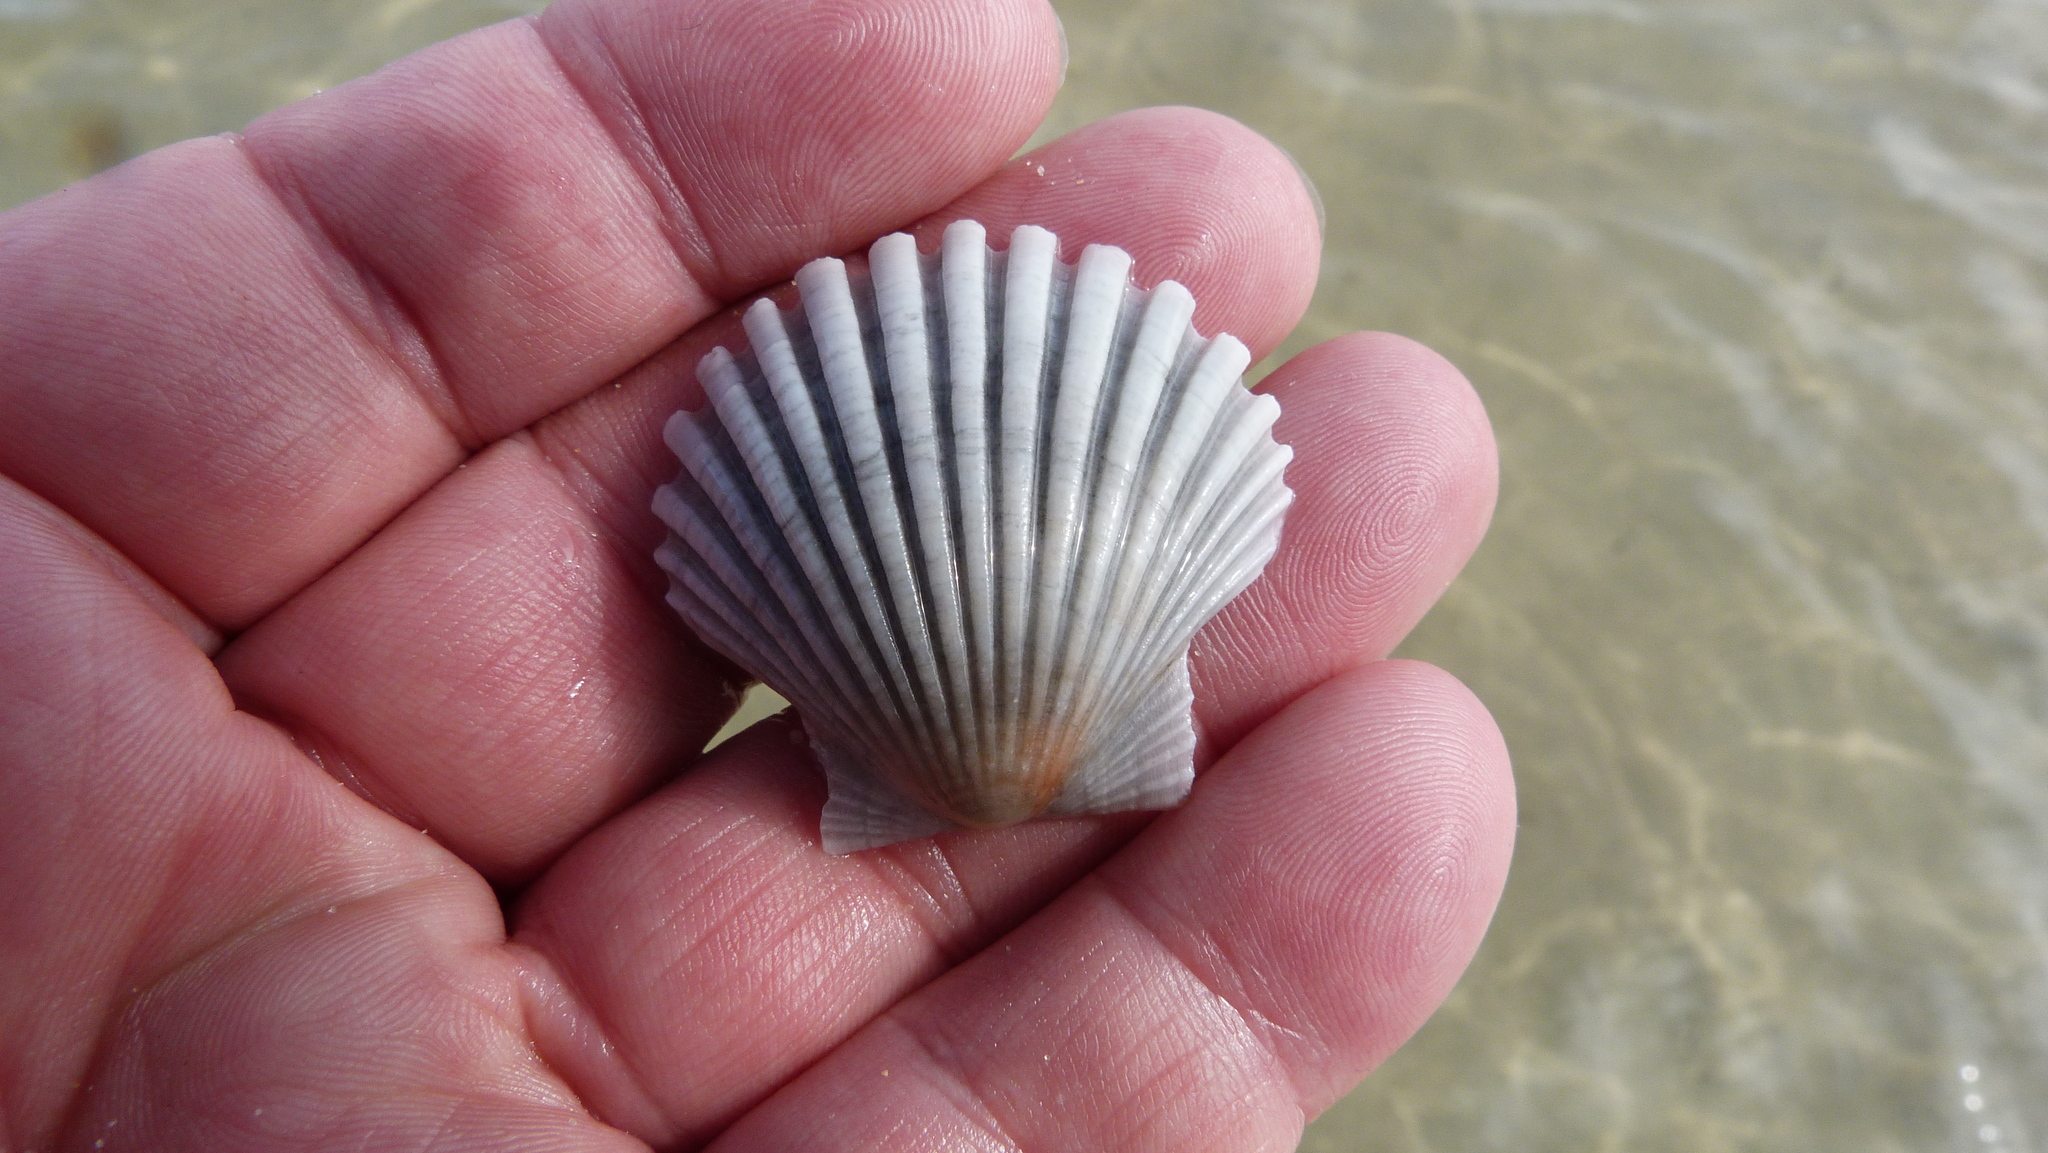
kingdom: Animalia
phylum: Mollusca
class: Bivalvia
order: Pectinida
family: Pectinidae
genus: Pecten
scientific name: Pecten fumatus
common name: Australian scallop
